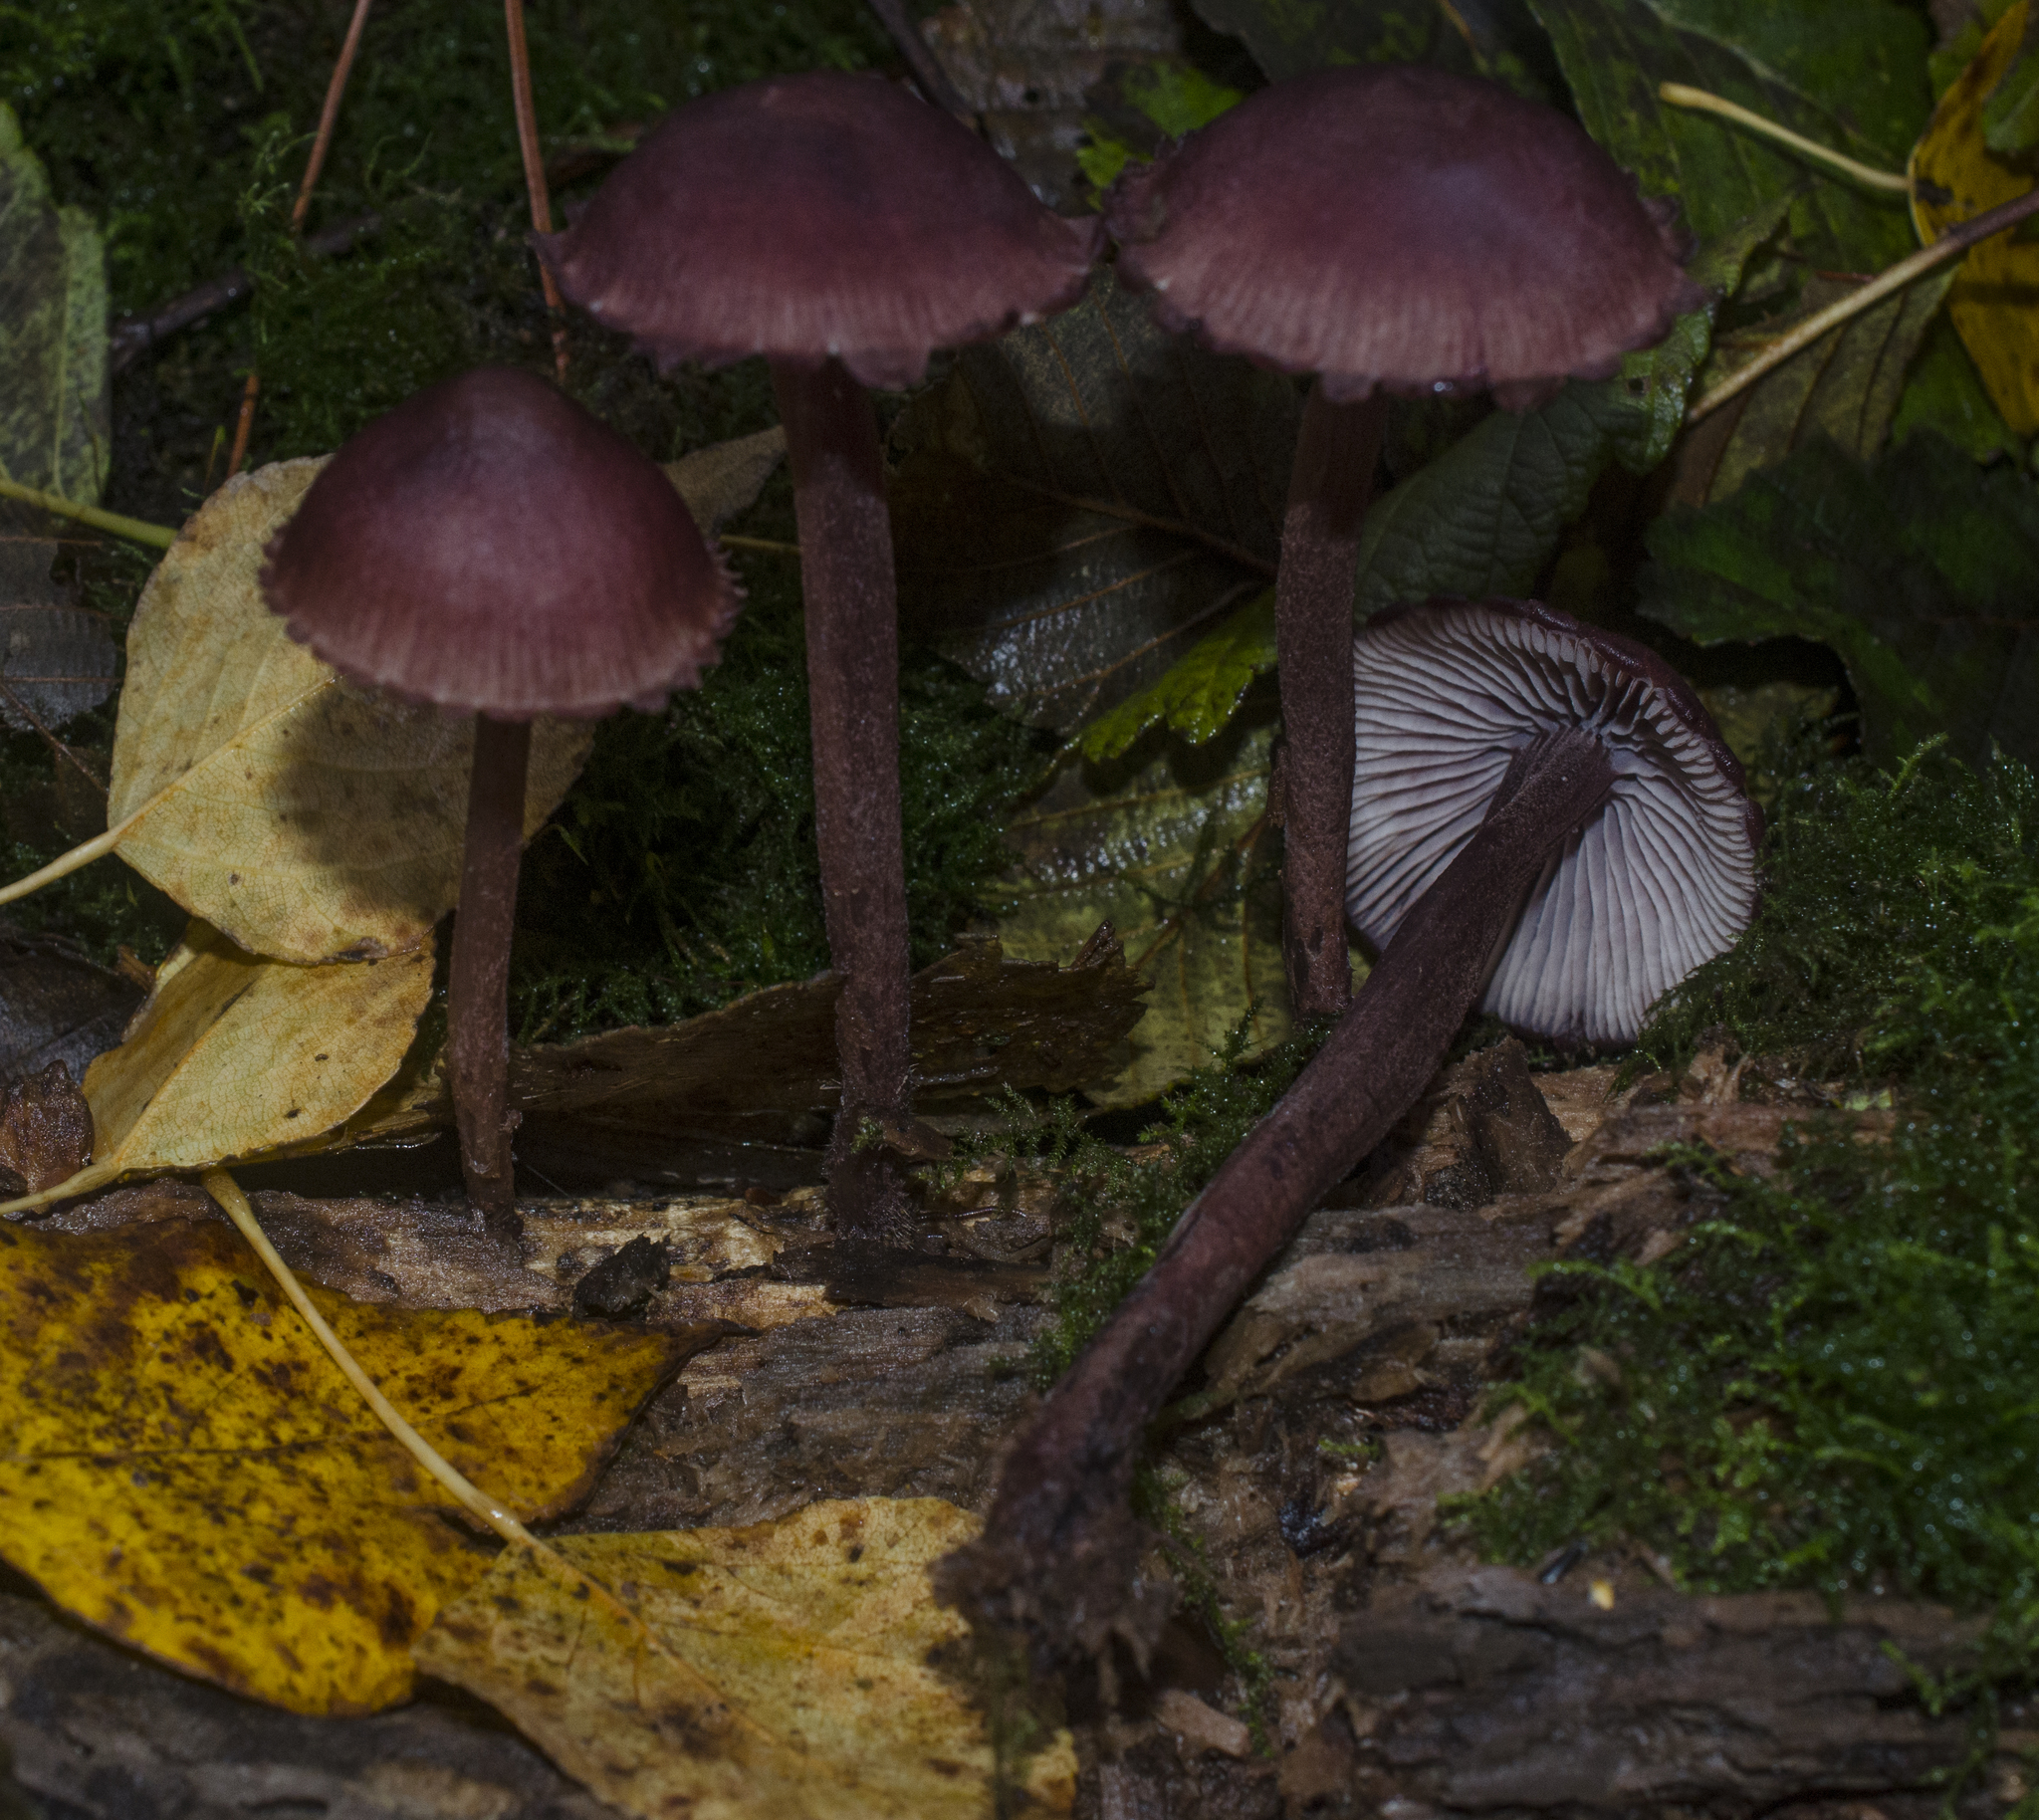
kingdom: Fungi
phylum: Basidiomycota
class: Agaricomycetes
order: Agaricales
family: Mycenaceae
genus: Mycena
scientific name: Mycena haematopus
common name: Burgundydrop bonnet
